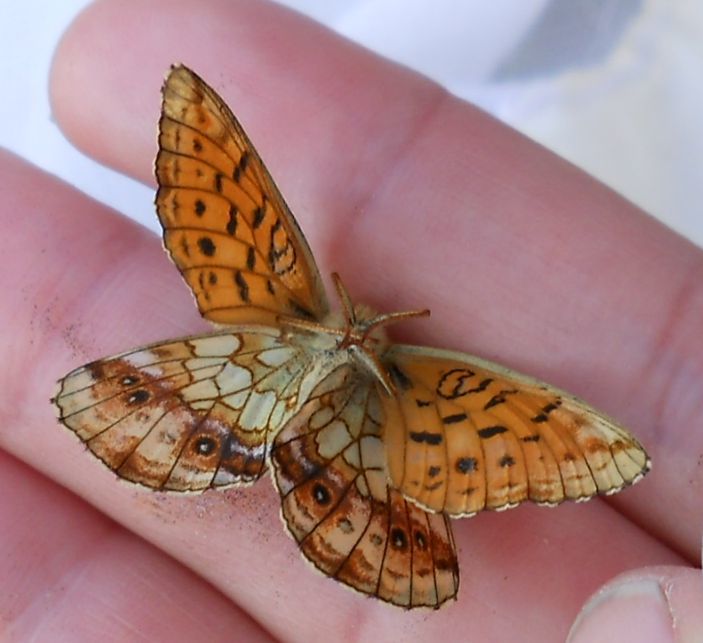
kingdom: Animalia
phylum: Arthropoda
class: Insecta
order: Lepidoptera
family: Nymphalidae
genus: Brenthis
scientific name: Brenthis ino
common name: Lesser marbled fritillary
